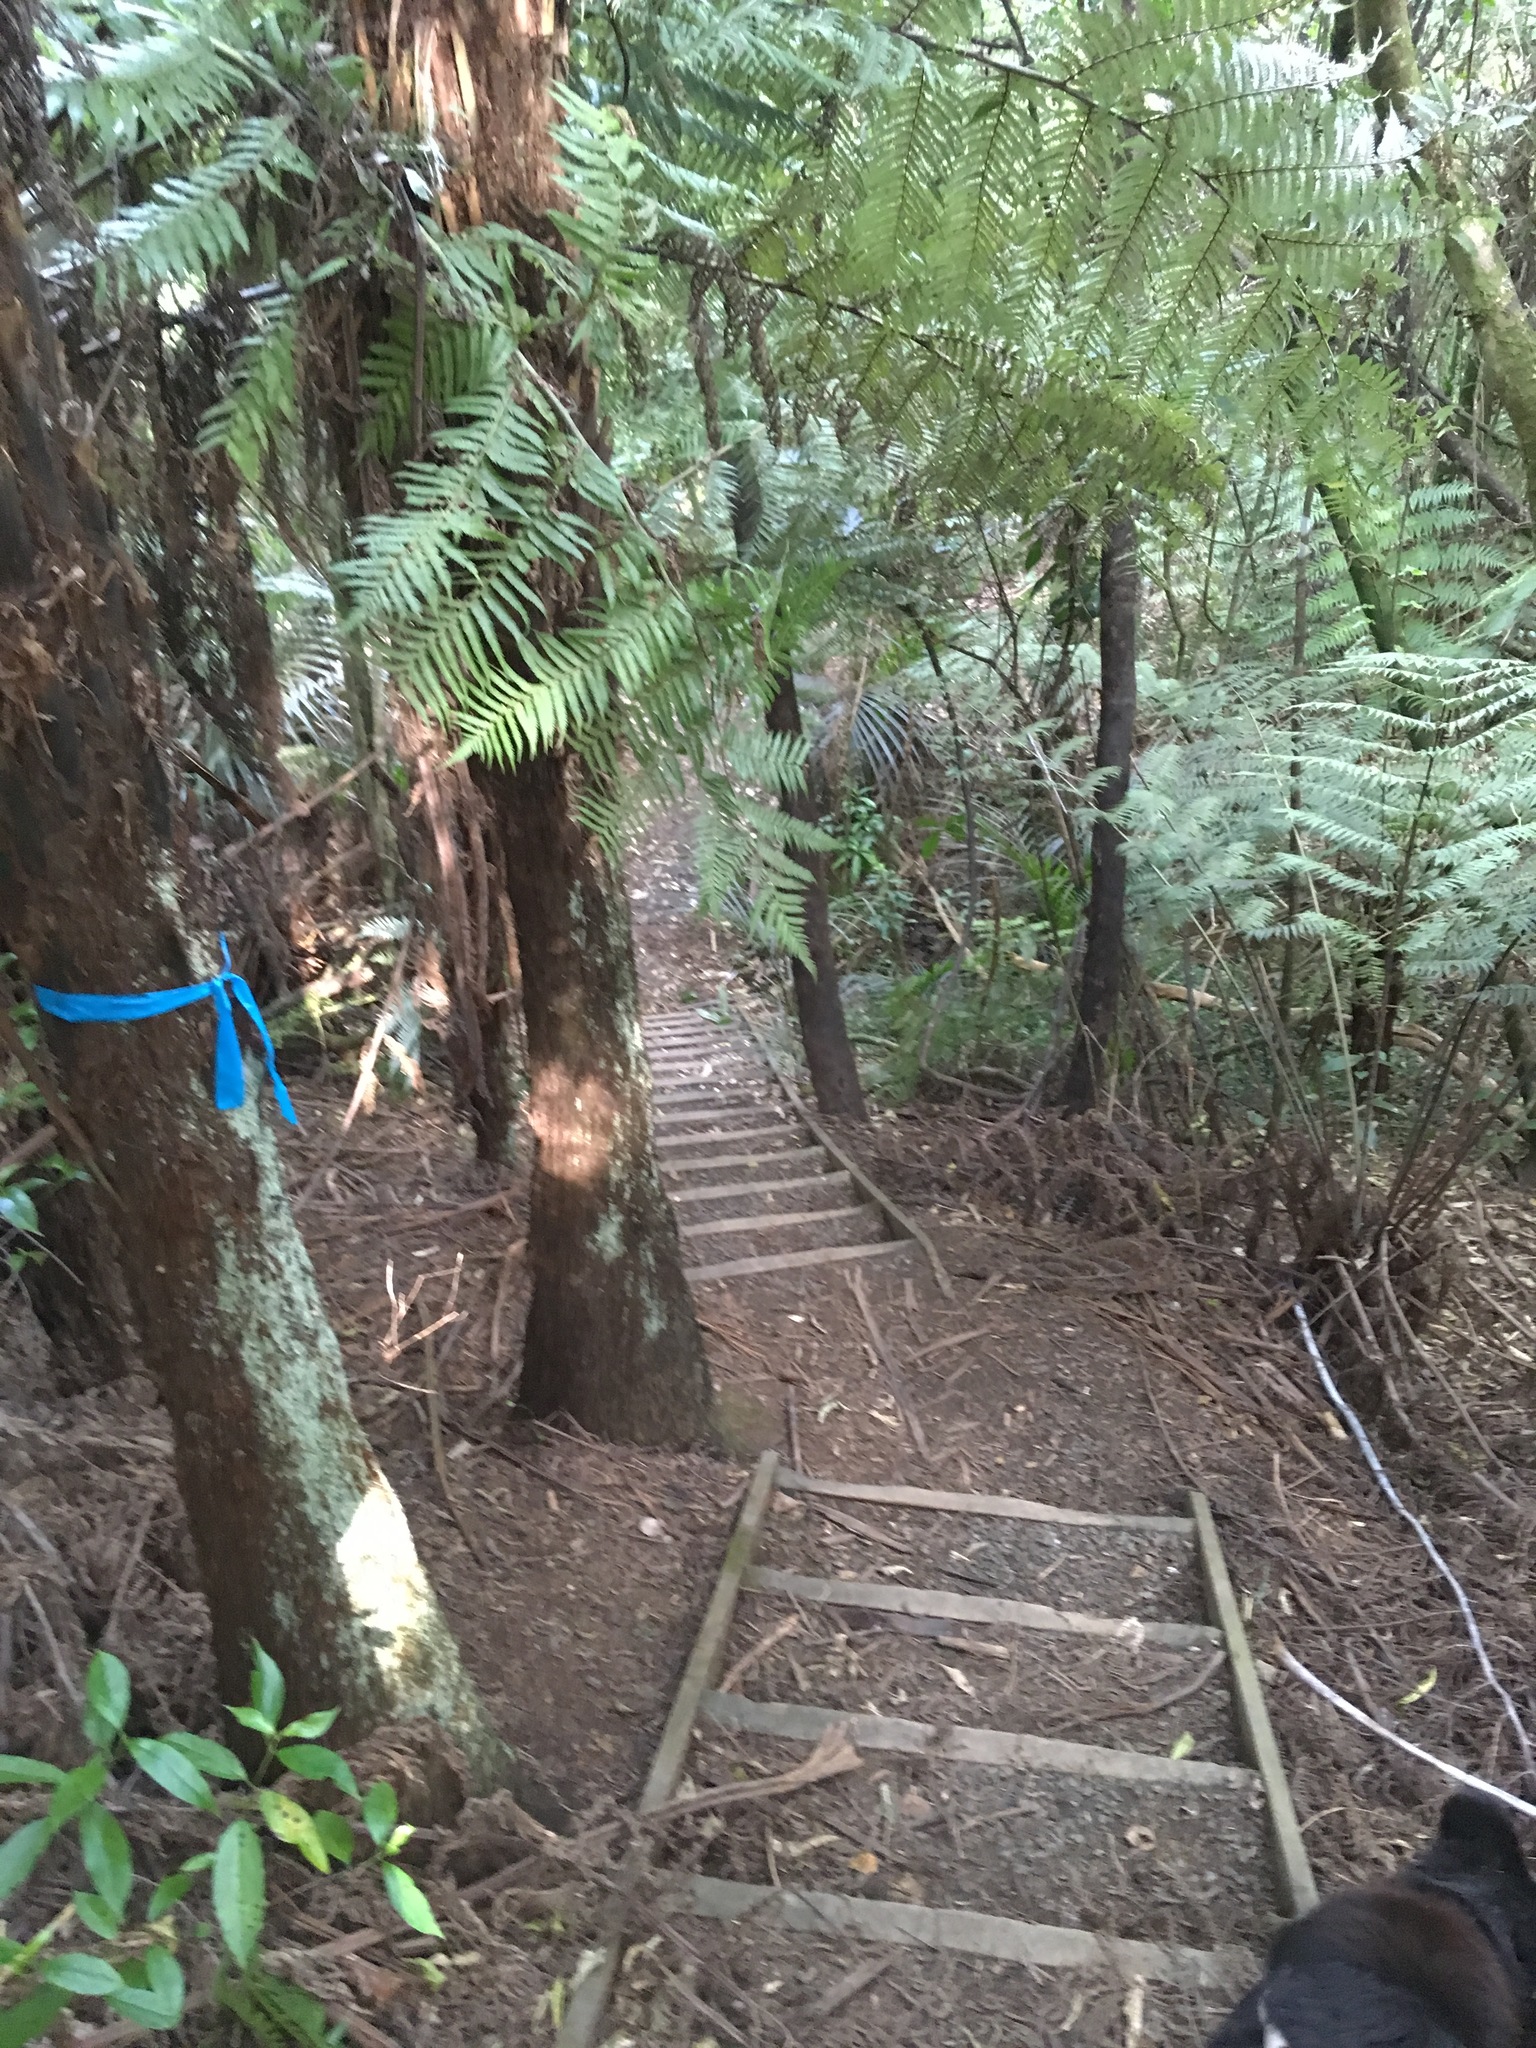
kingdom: Plantae
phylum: Tracheophyta
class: Polypodiopsida
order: Cyatheales
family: Cyatheaceae
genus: Alsophila
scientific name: Alsophila dealbata
